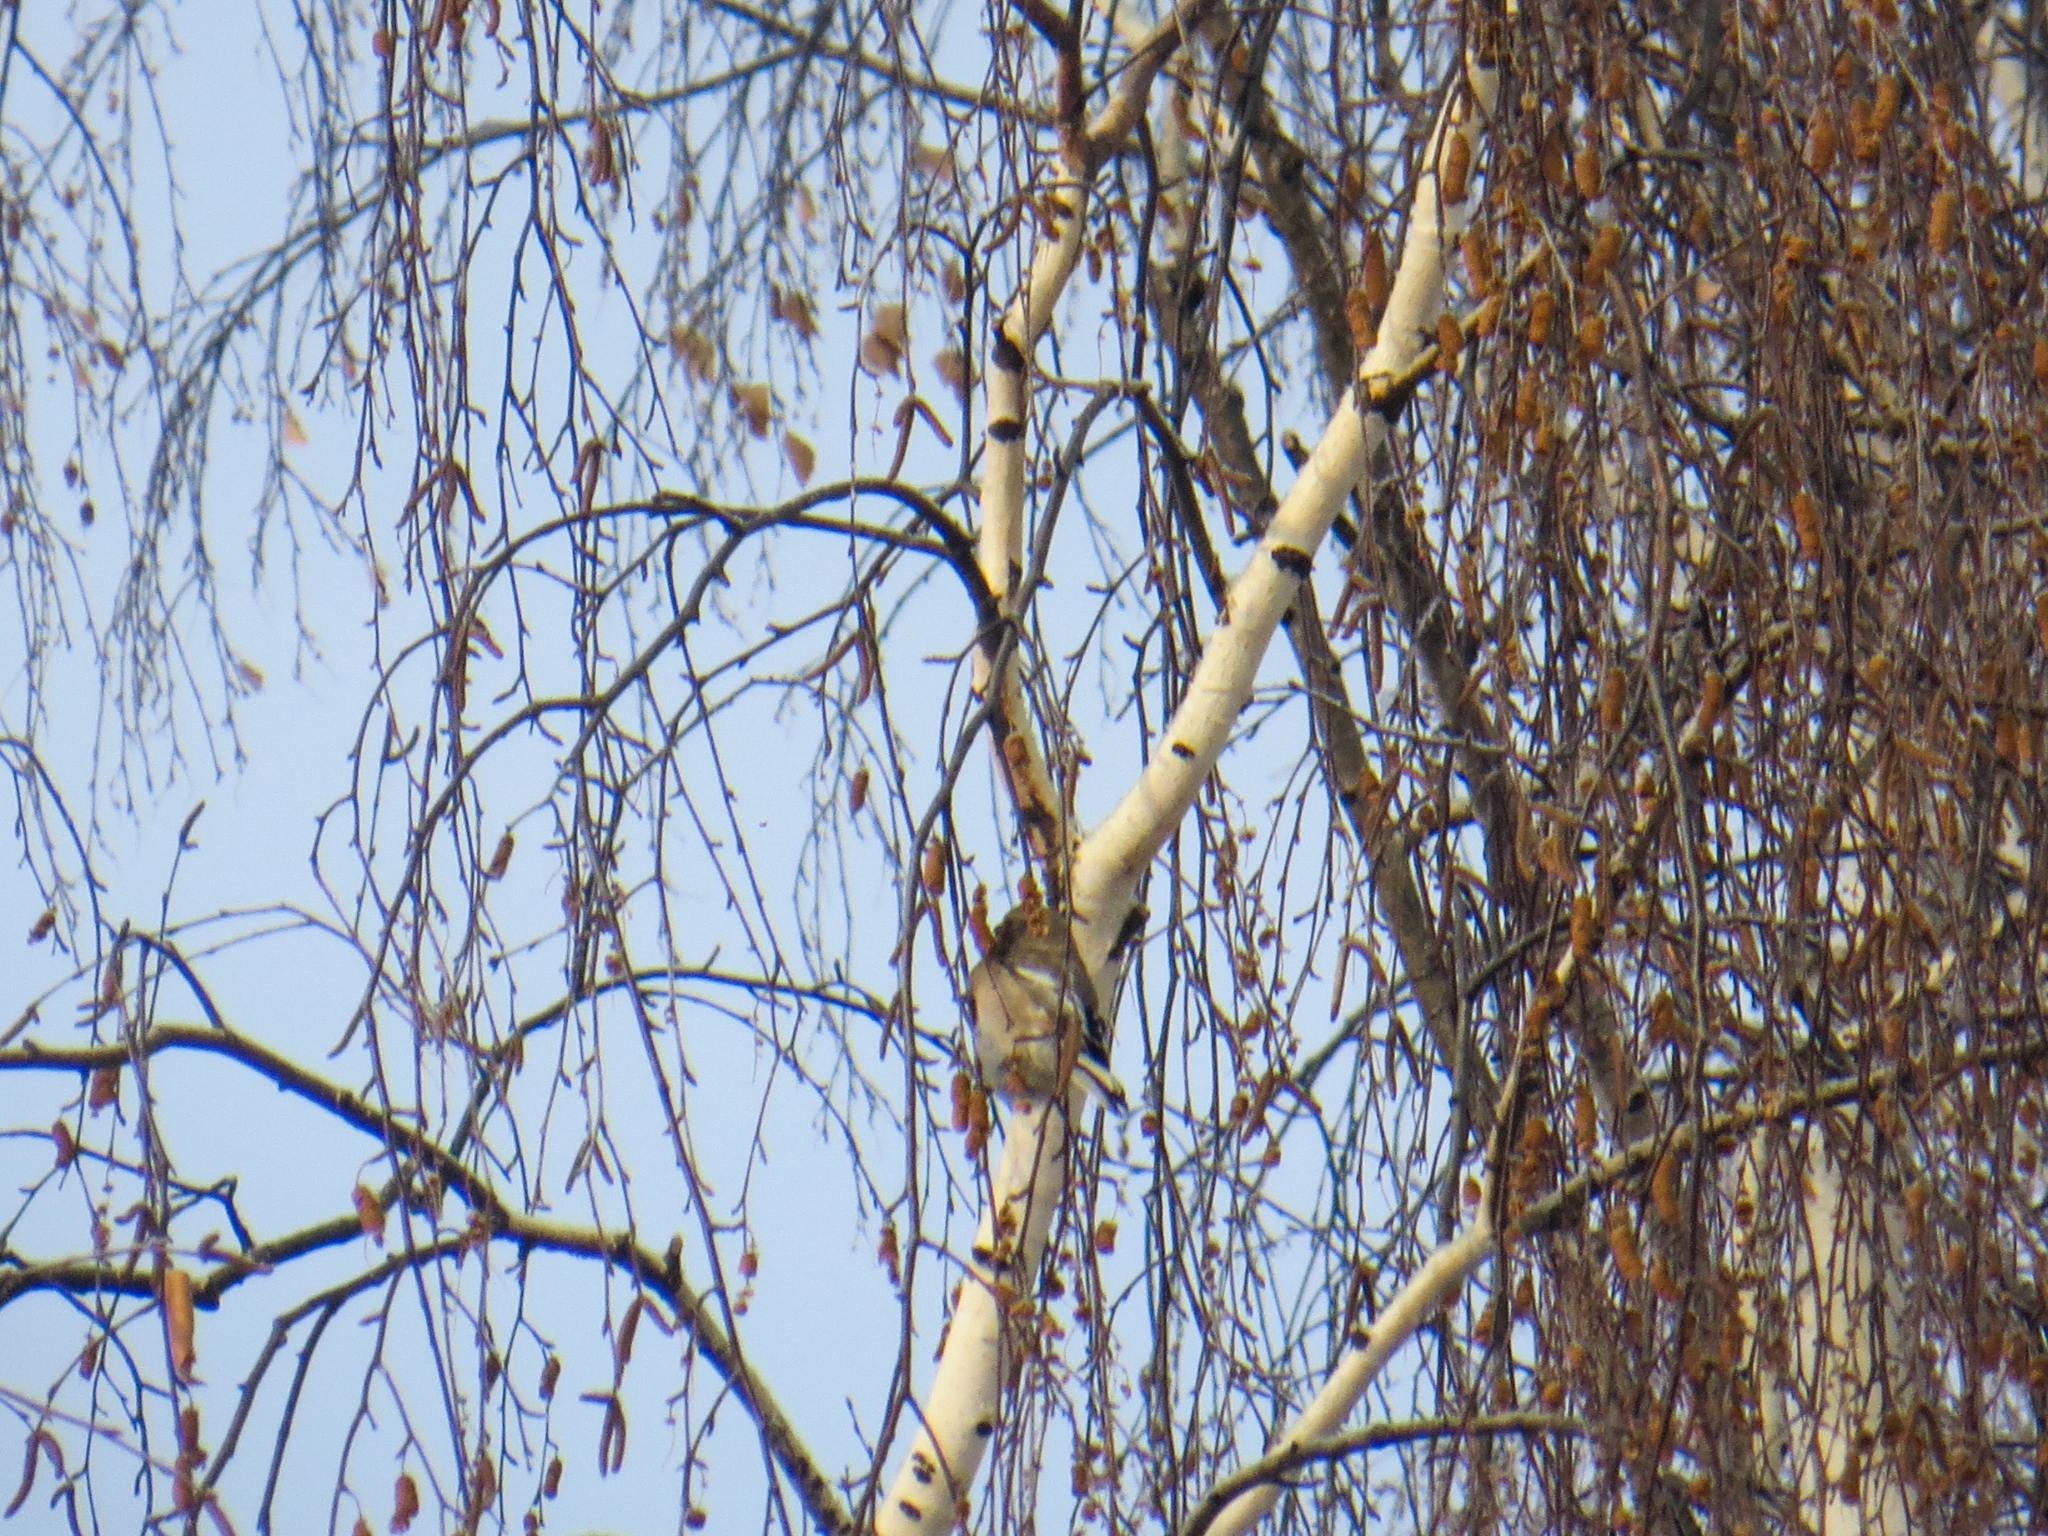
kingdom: Animalia
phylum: Chordata
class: Aves
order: Passeriformes
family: Fringillidae
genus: Carpodacus
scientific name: Carpodacus sibiricus
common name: Long-tailed rosefinch
